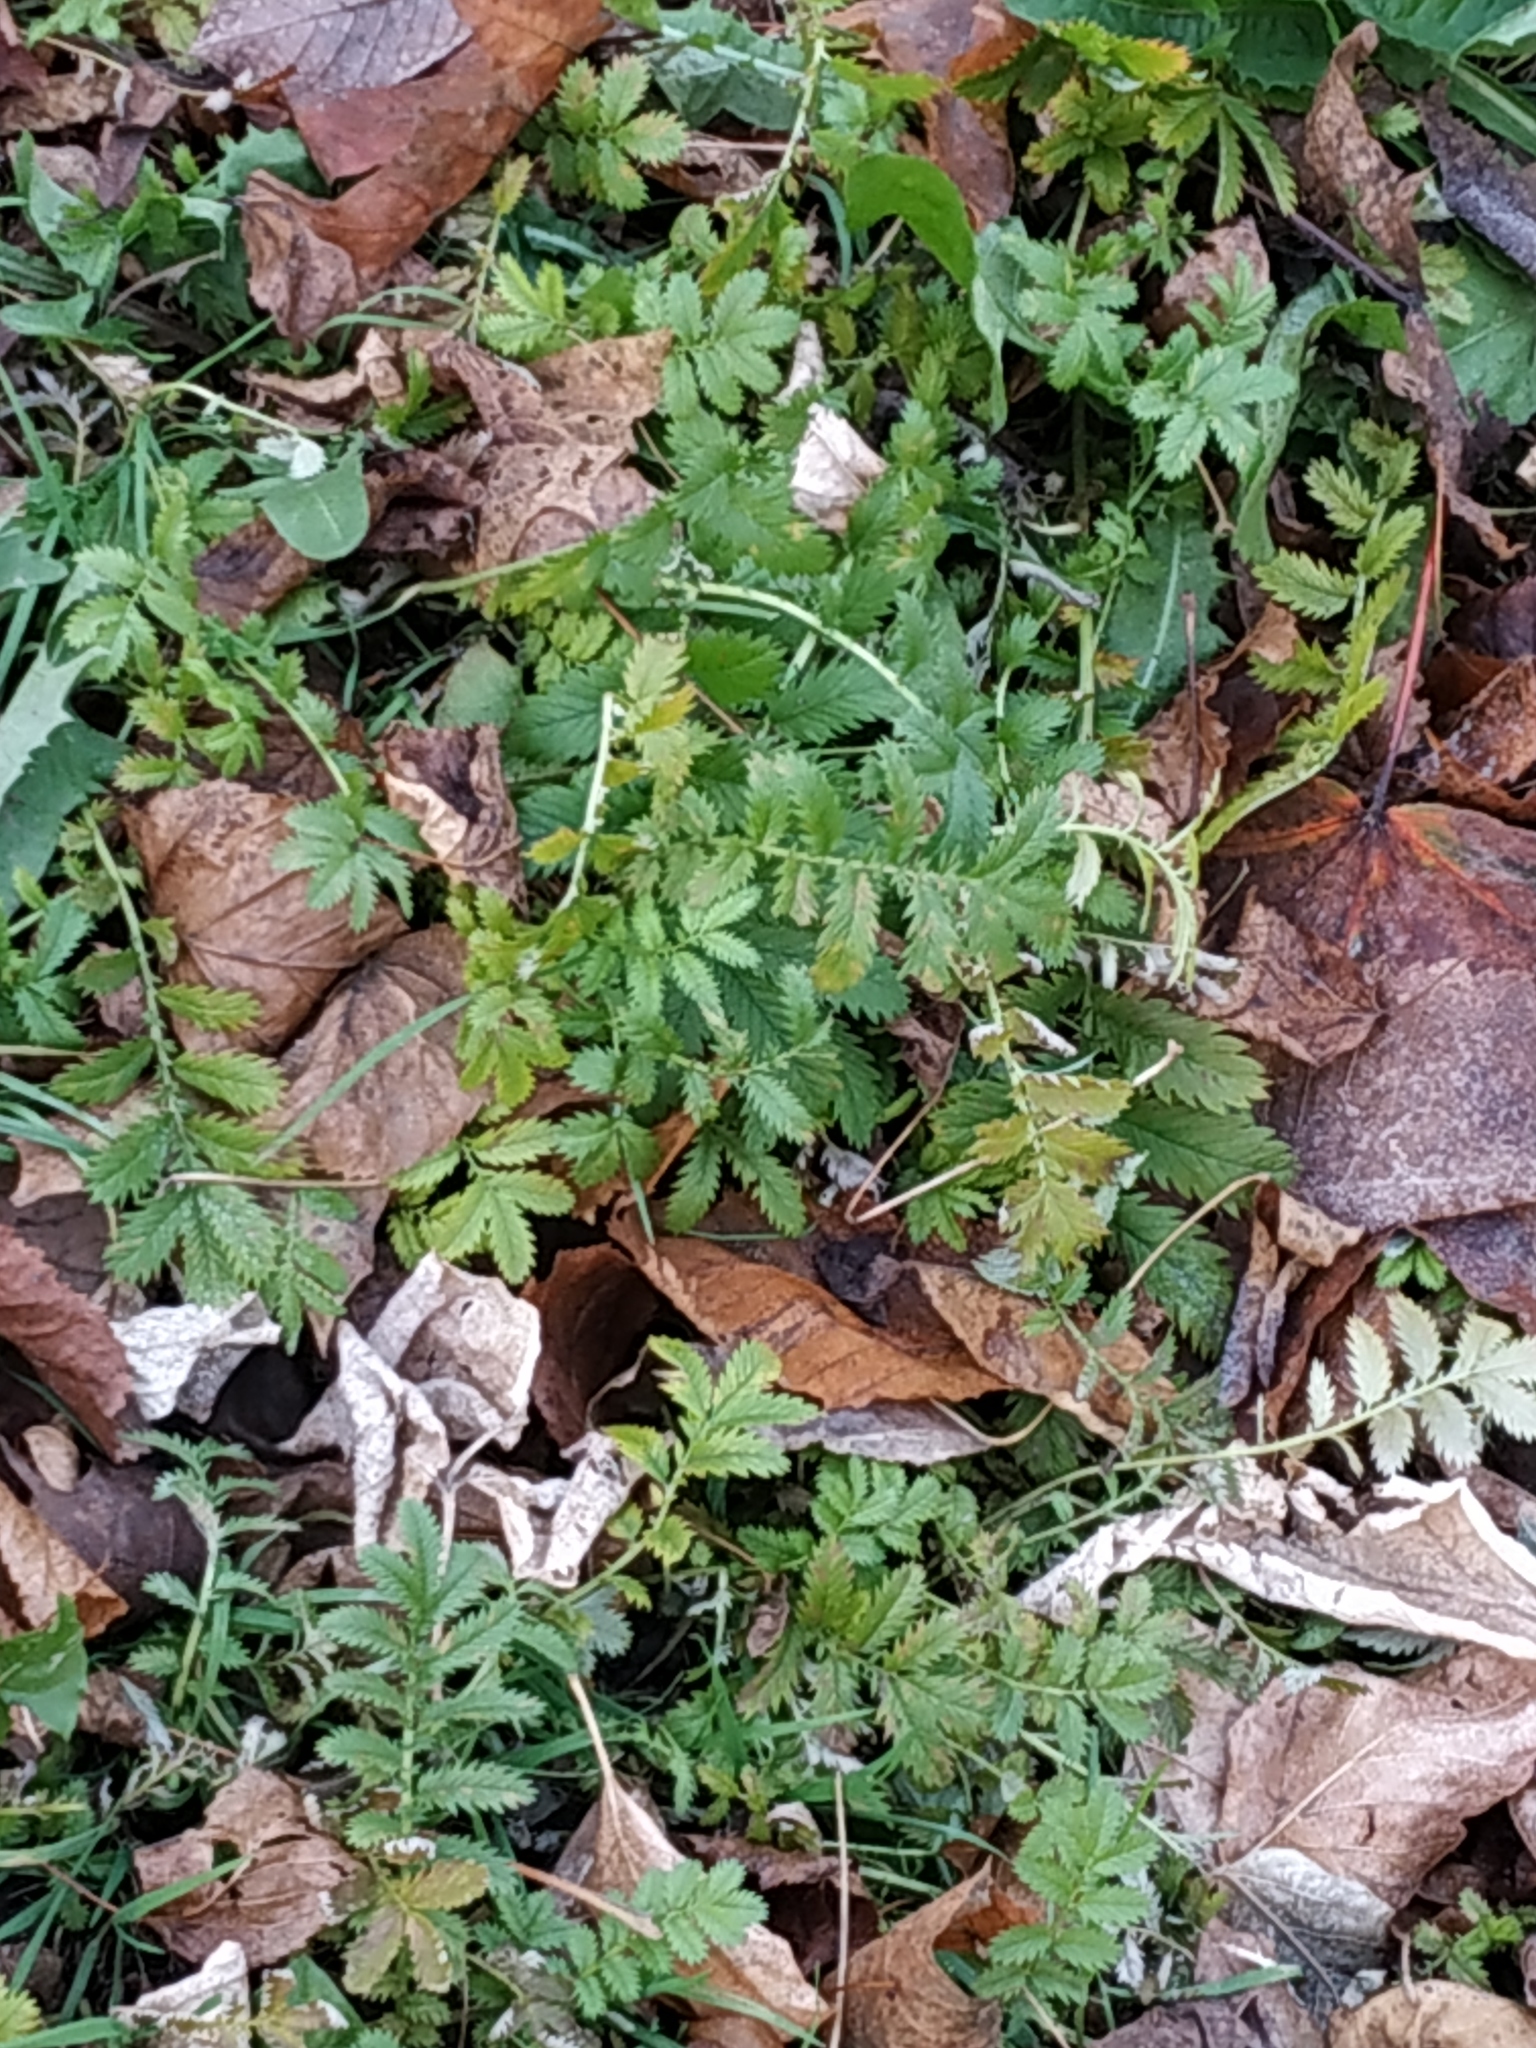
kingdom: Plantae
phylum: Tracheophyta
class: Magnoliopsida
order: Rosales
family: Rosaceae
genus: Argentina
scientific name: Argentina anserina
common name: Common silverweed
